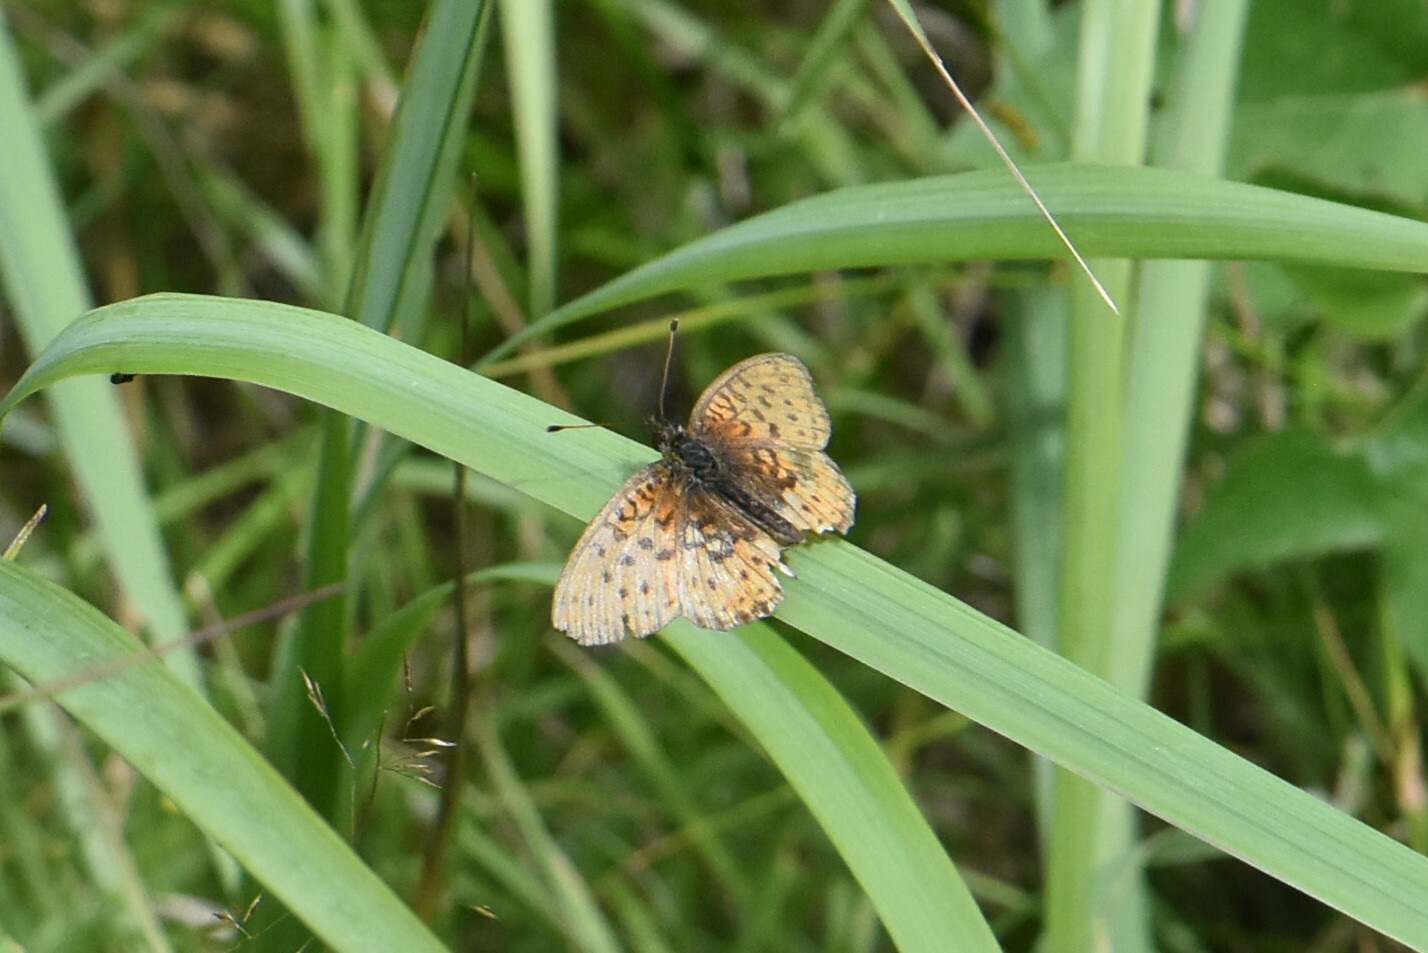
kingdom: Animalia
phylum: Arthropoda
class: Insecta
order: Lepidoptera
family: Nymphalidae
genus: Brenthis
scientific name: Brenthis ino
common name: Lesser marbled fritillary
